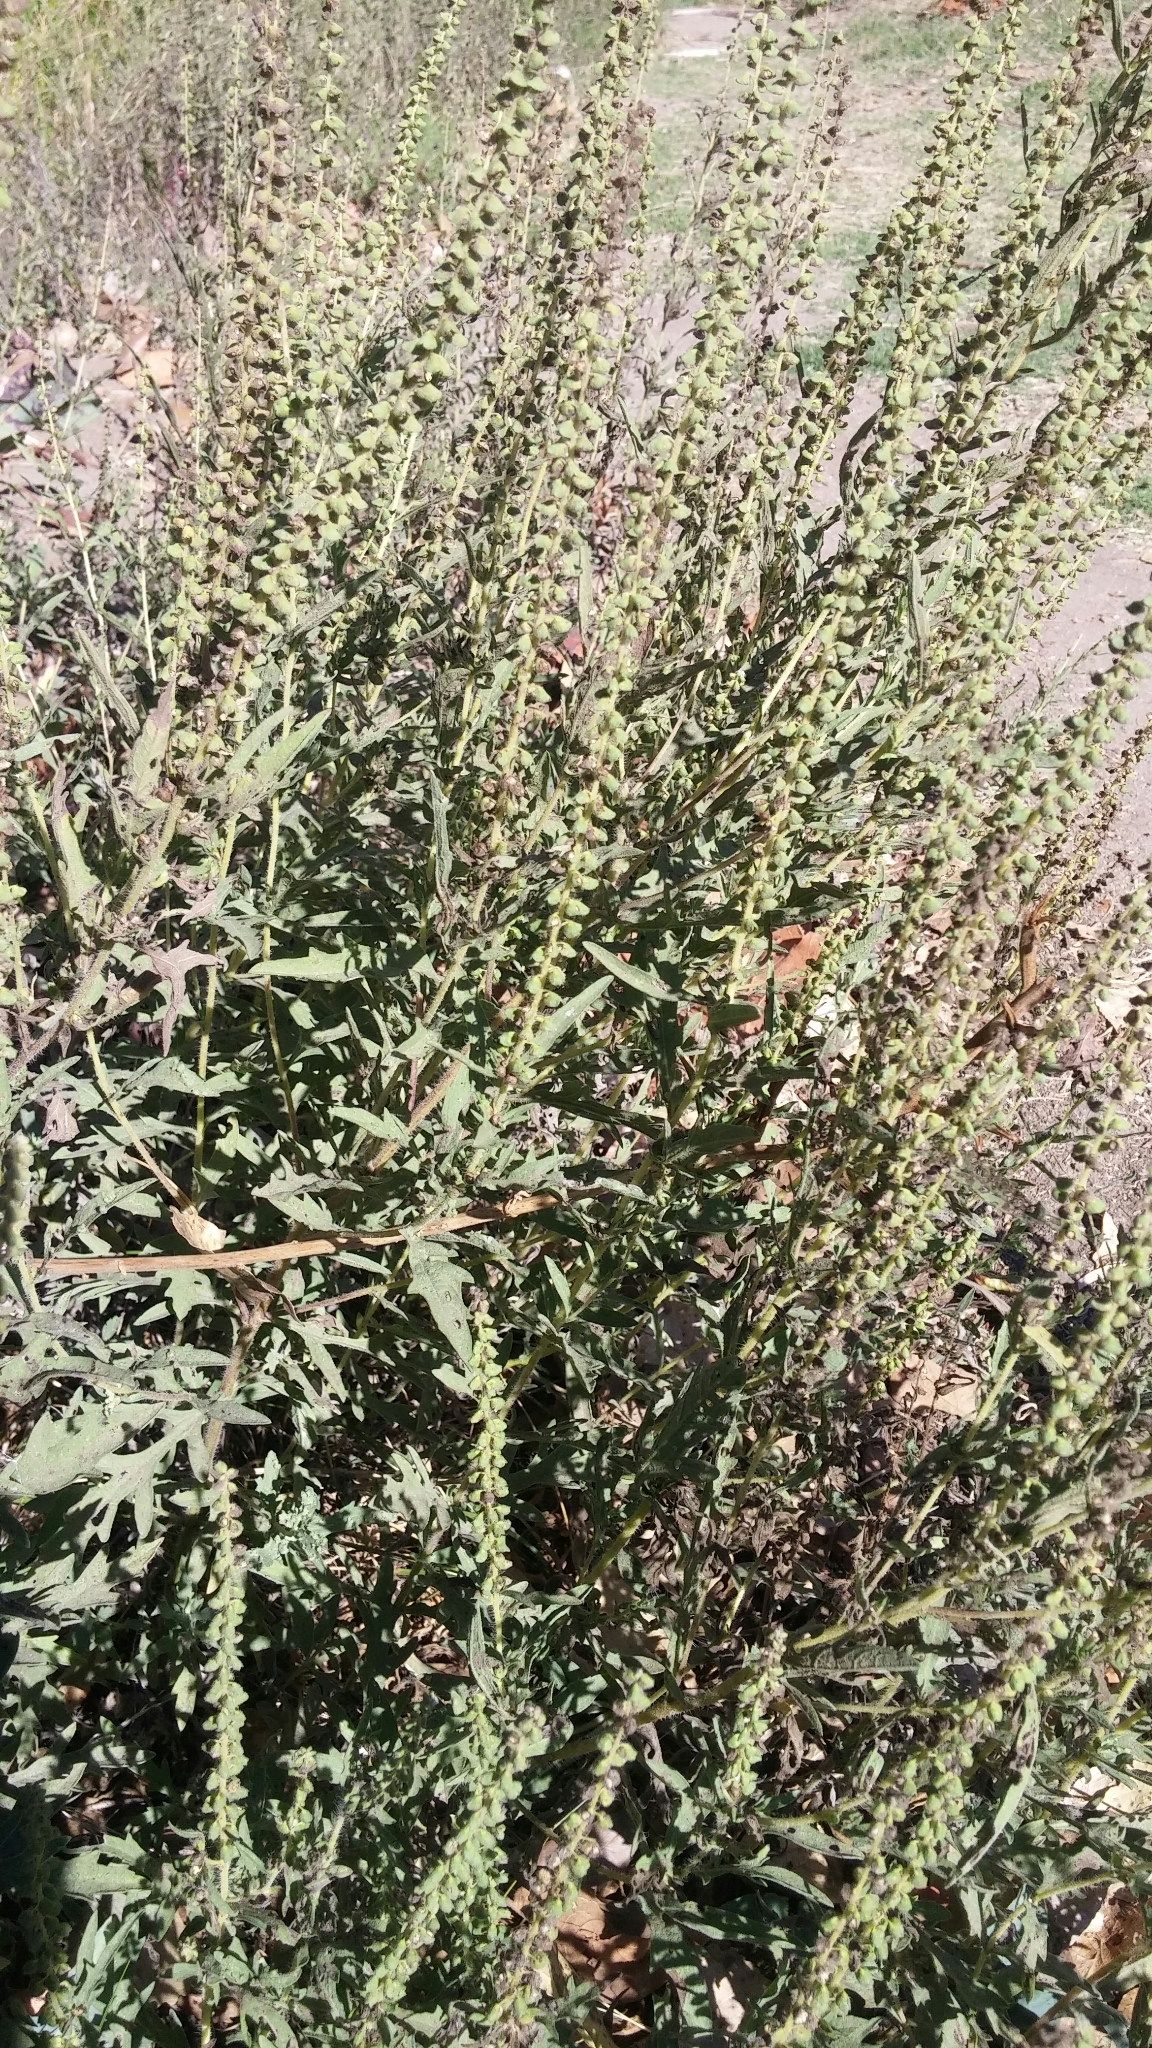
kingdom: Plantae
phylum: Tracheophyta
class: Magnoliopsida
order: Asterales
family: Asteraceae
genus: Ambrosia
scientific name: Ambrosia psilostachya
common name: Perennial ragweed
